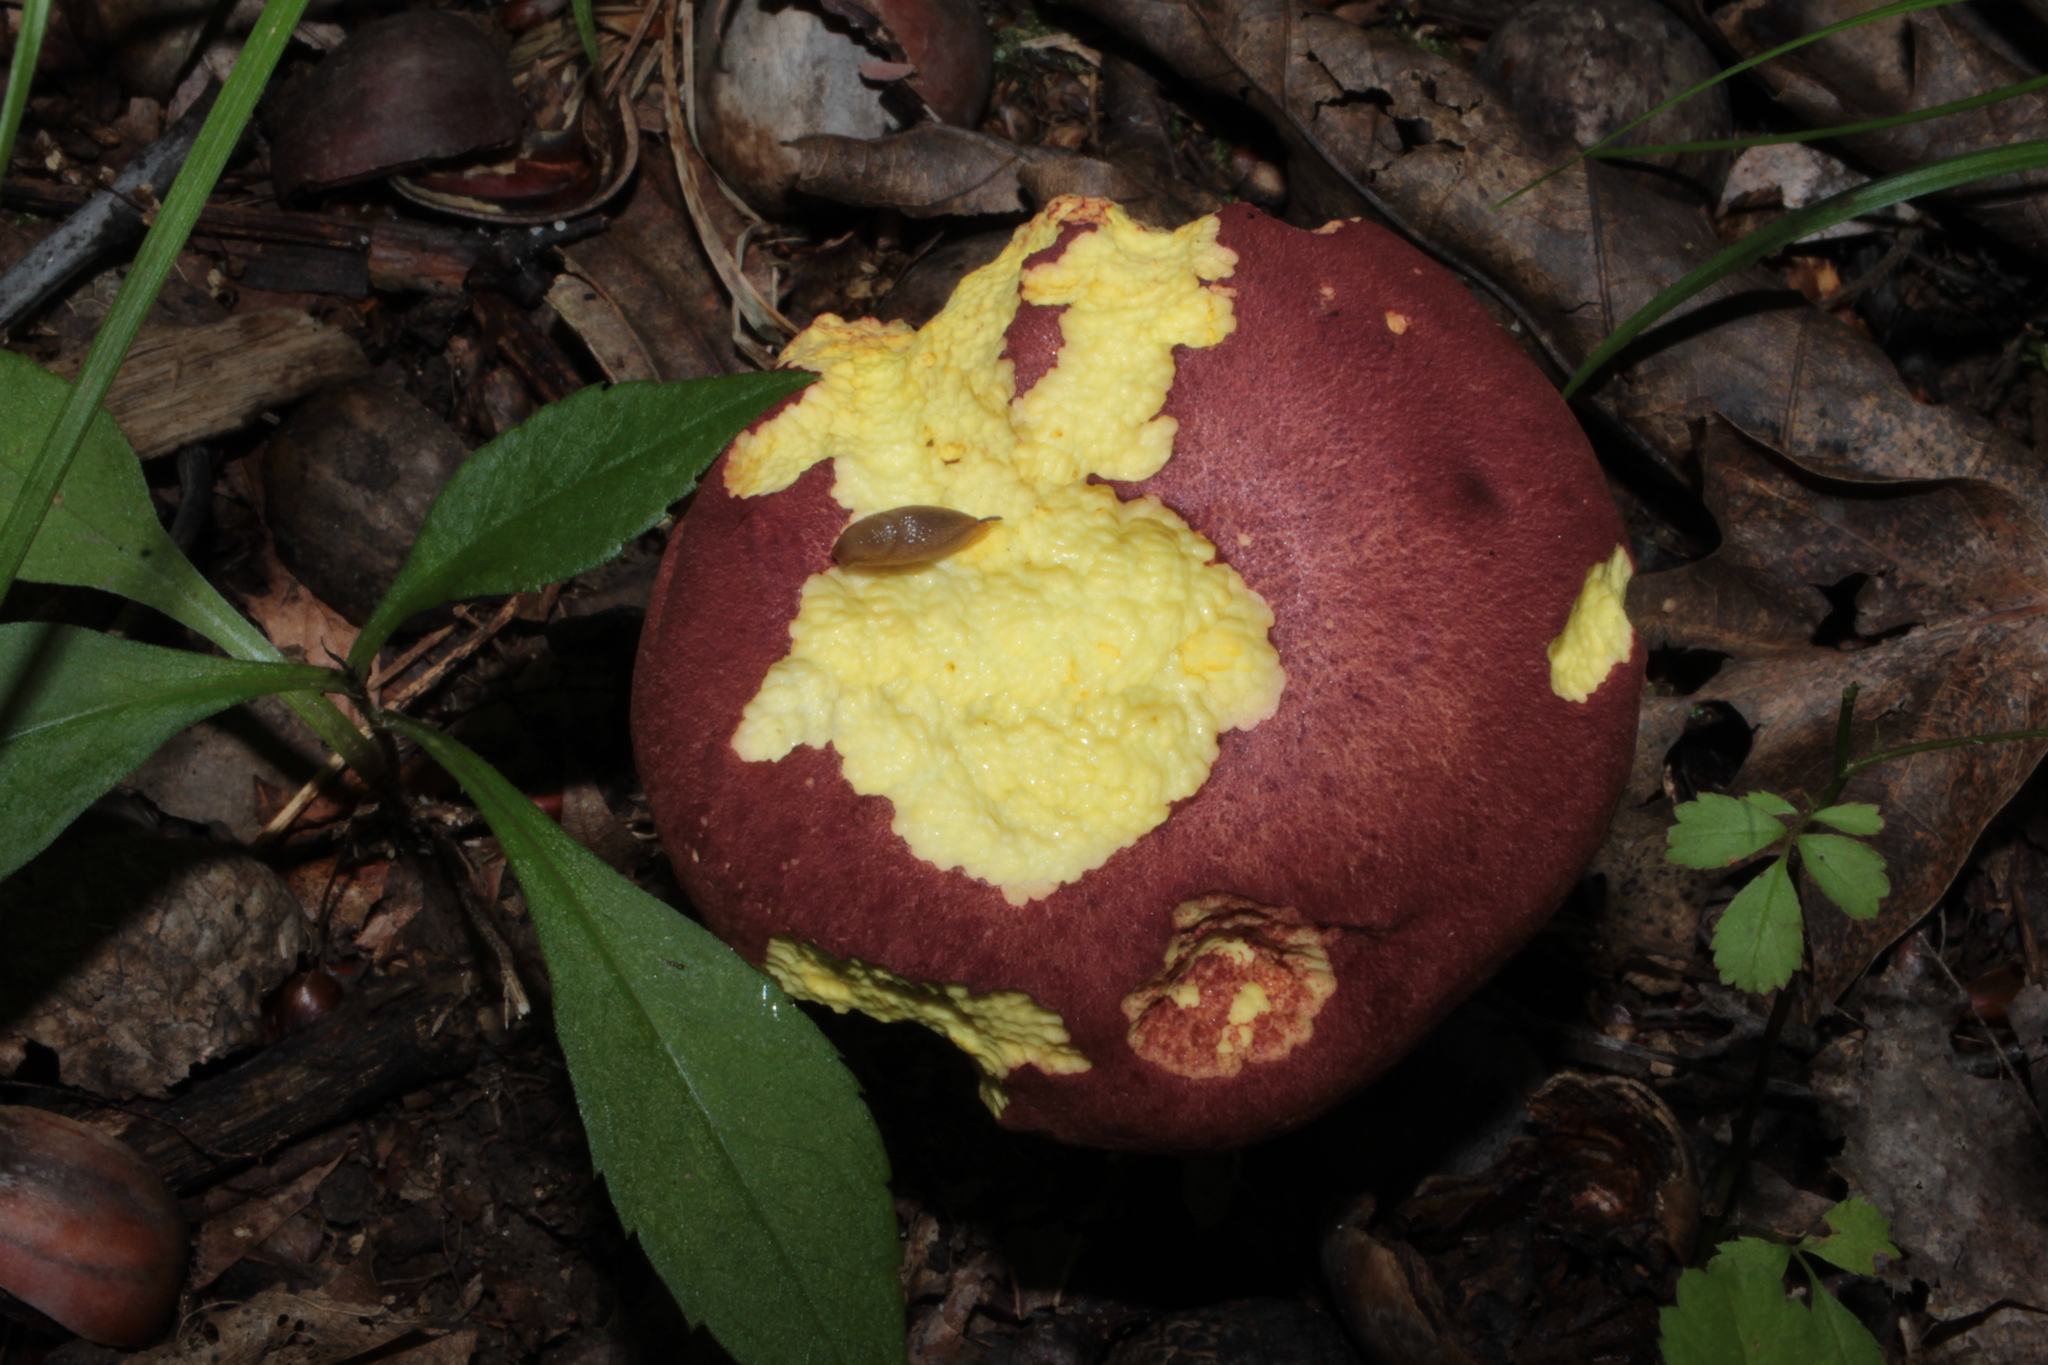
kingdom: Fungi
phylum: Basidiomycota
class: Agaricomycetes
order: Boletales
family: Boletaceae
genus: Baorangia
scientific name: Baorangia bicolor
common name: Two-colored bolete
